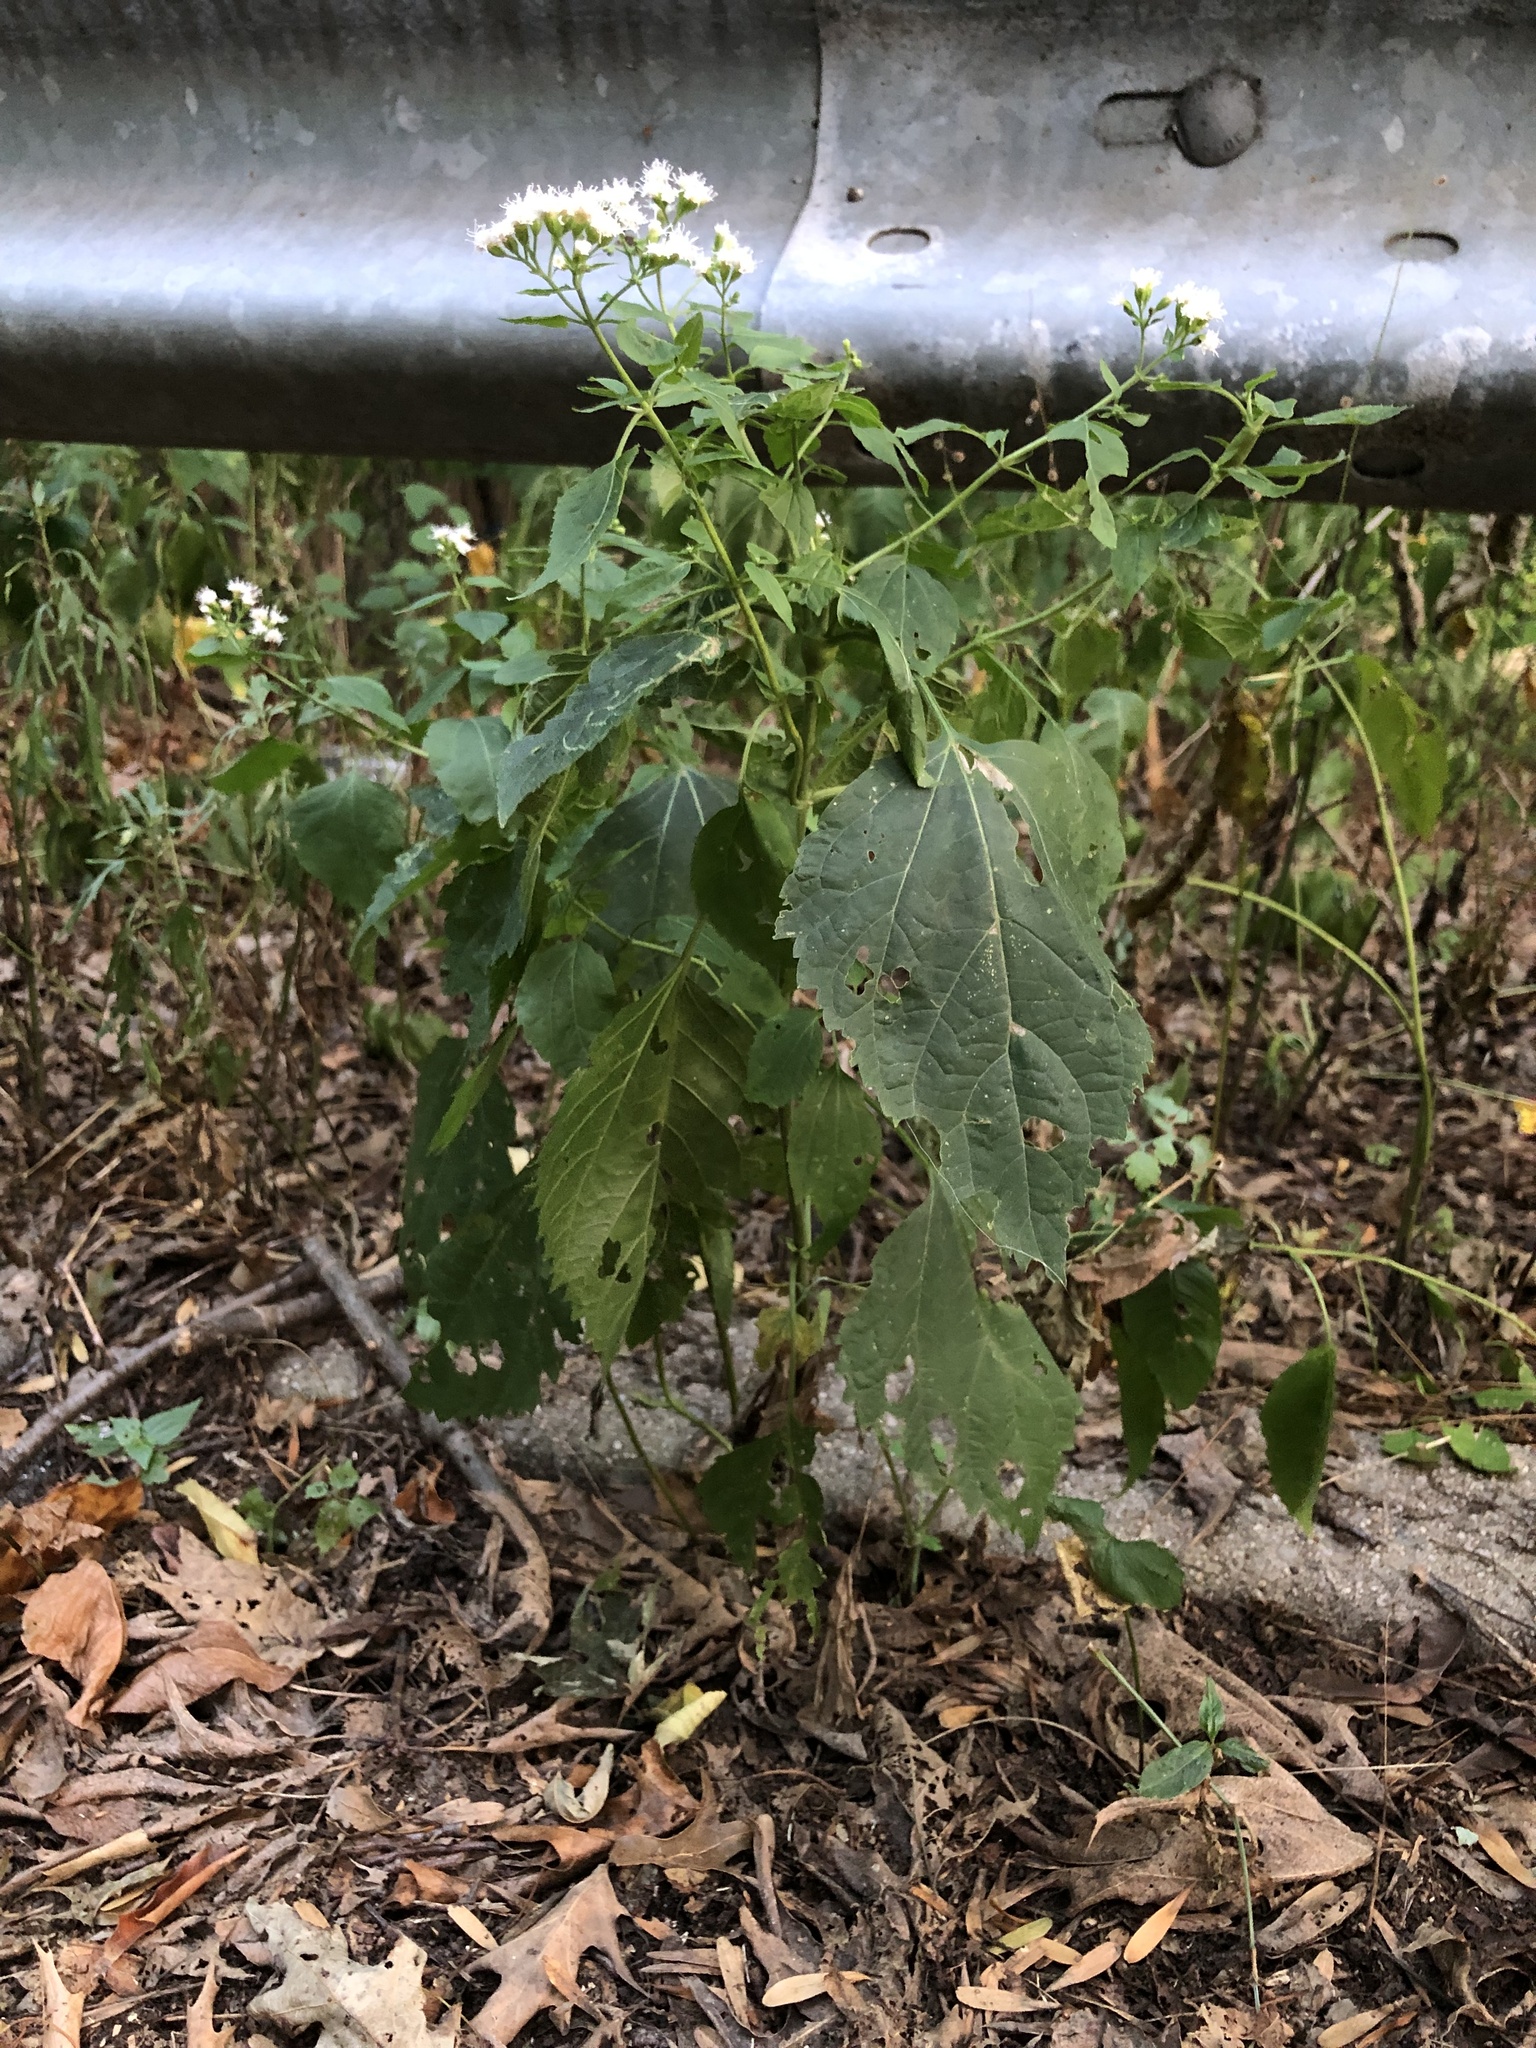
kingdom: Plantae
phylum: Tracheophyta
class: Magnoliopsida
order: Asterales
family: Asteraceae
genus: Ageratina
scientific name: Ageratina altissima
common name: White snakeroot
